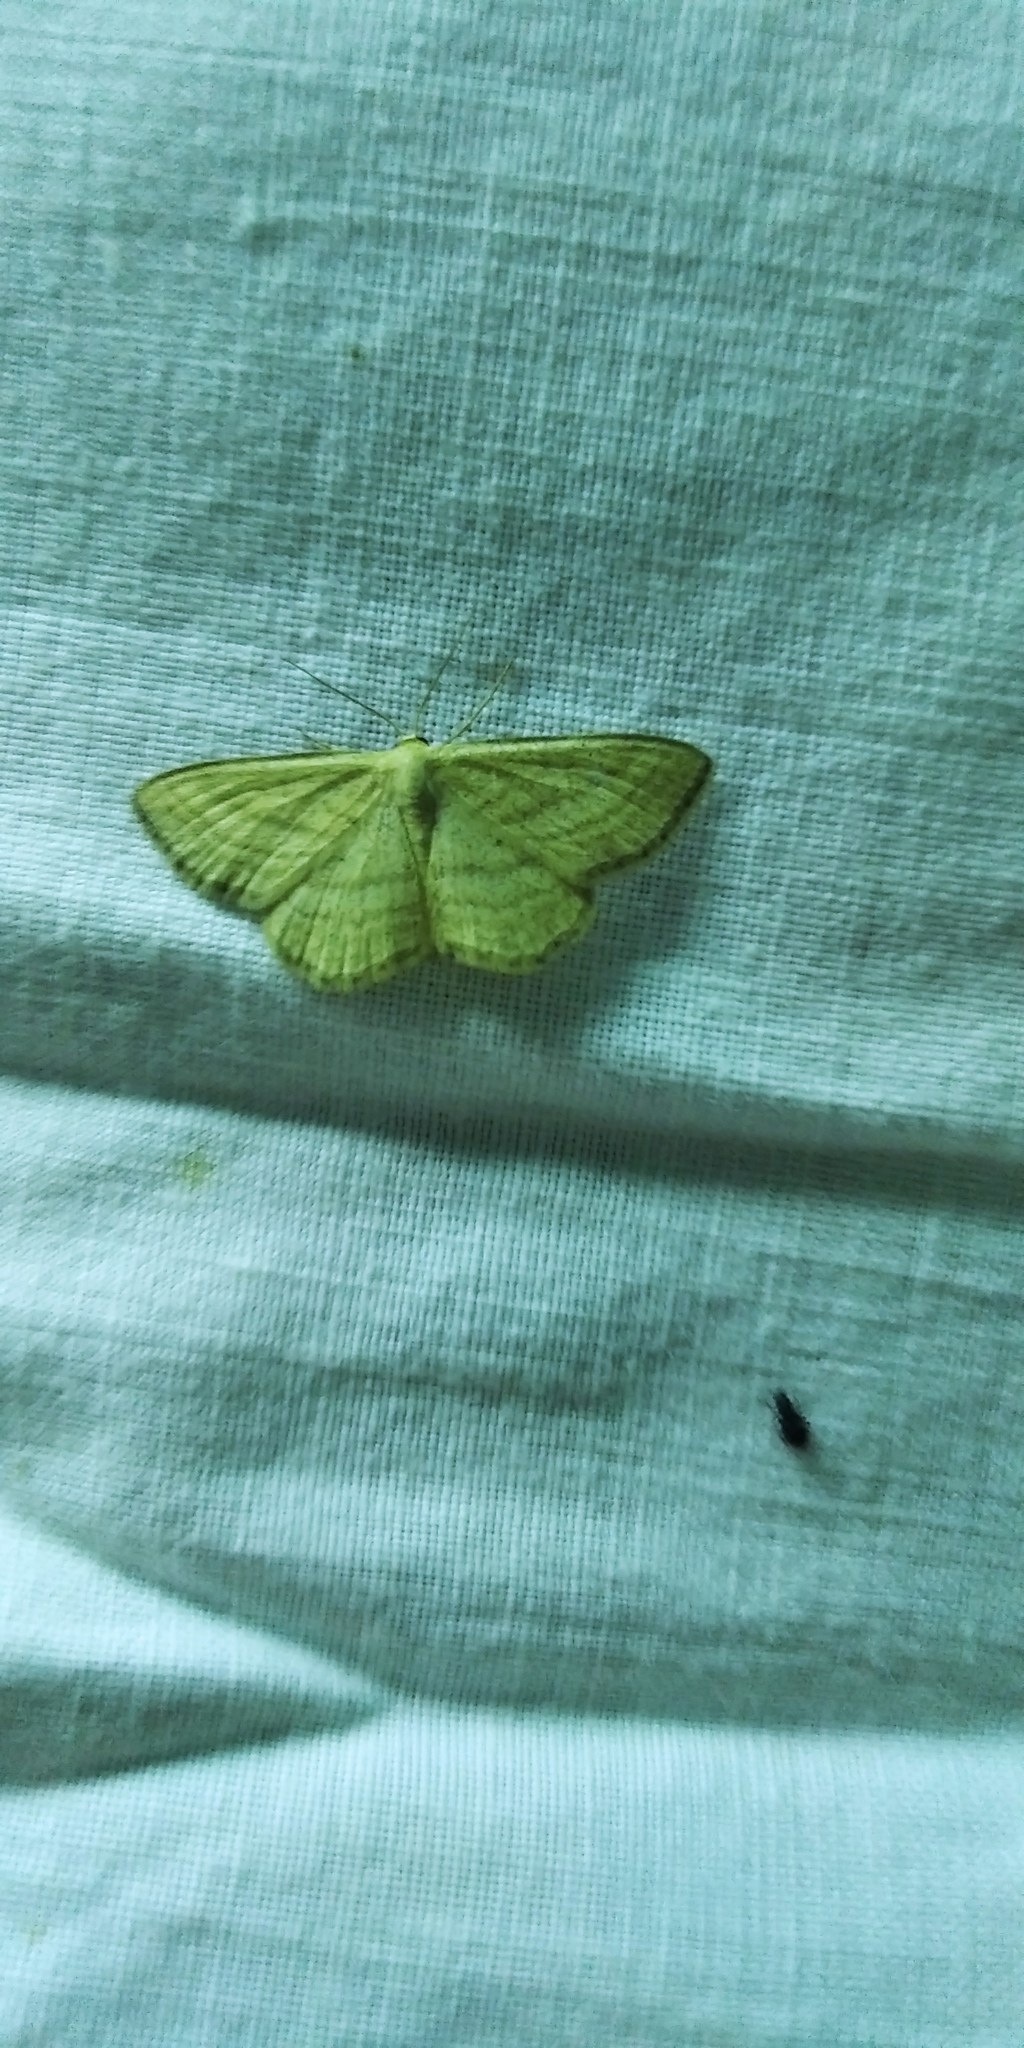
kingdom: Animalia
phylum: Arthropoda
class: Insecta
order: Lepidoptera
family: Geometridae
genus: Scopula
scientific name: Scopula virgulata
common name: Streaked wave
